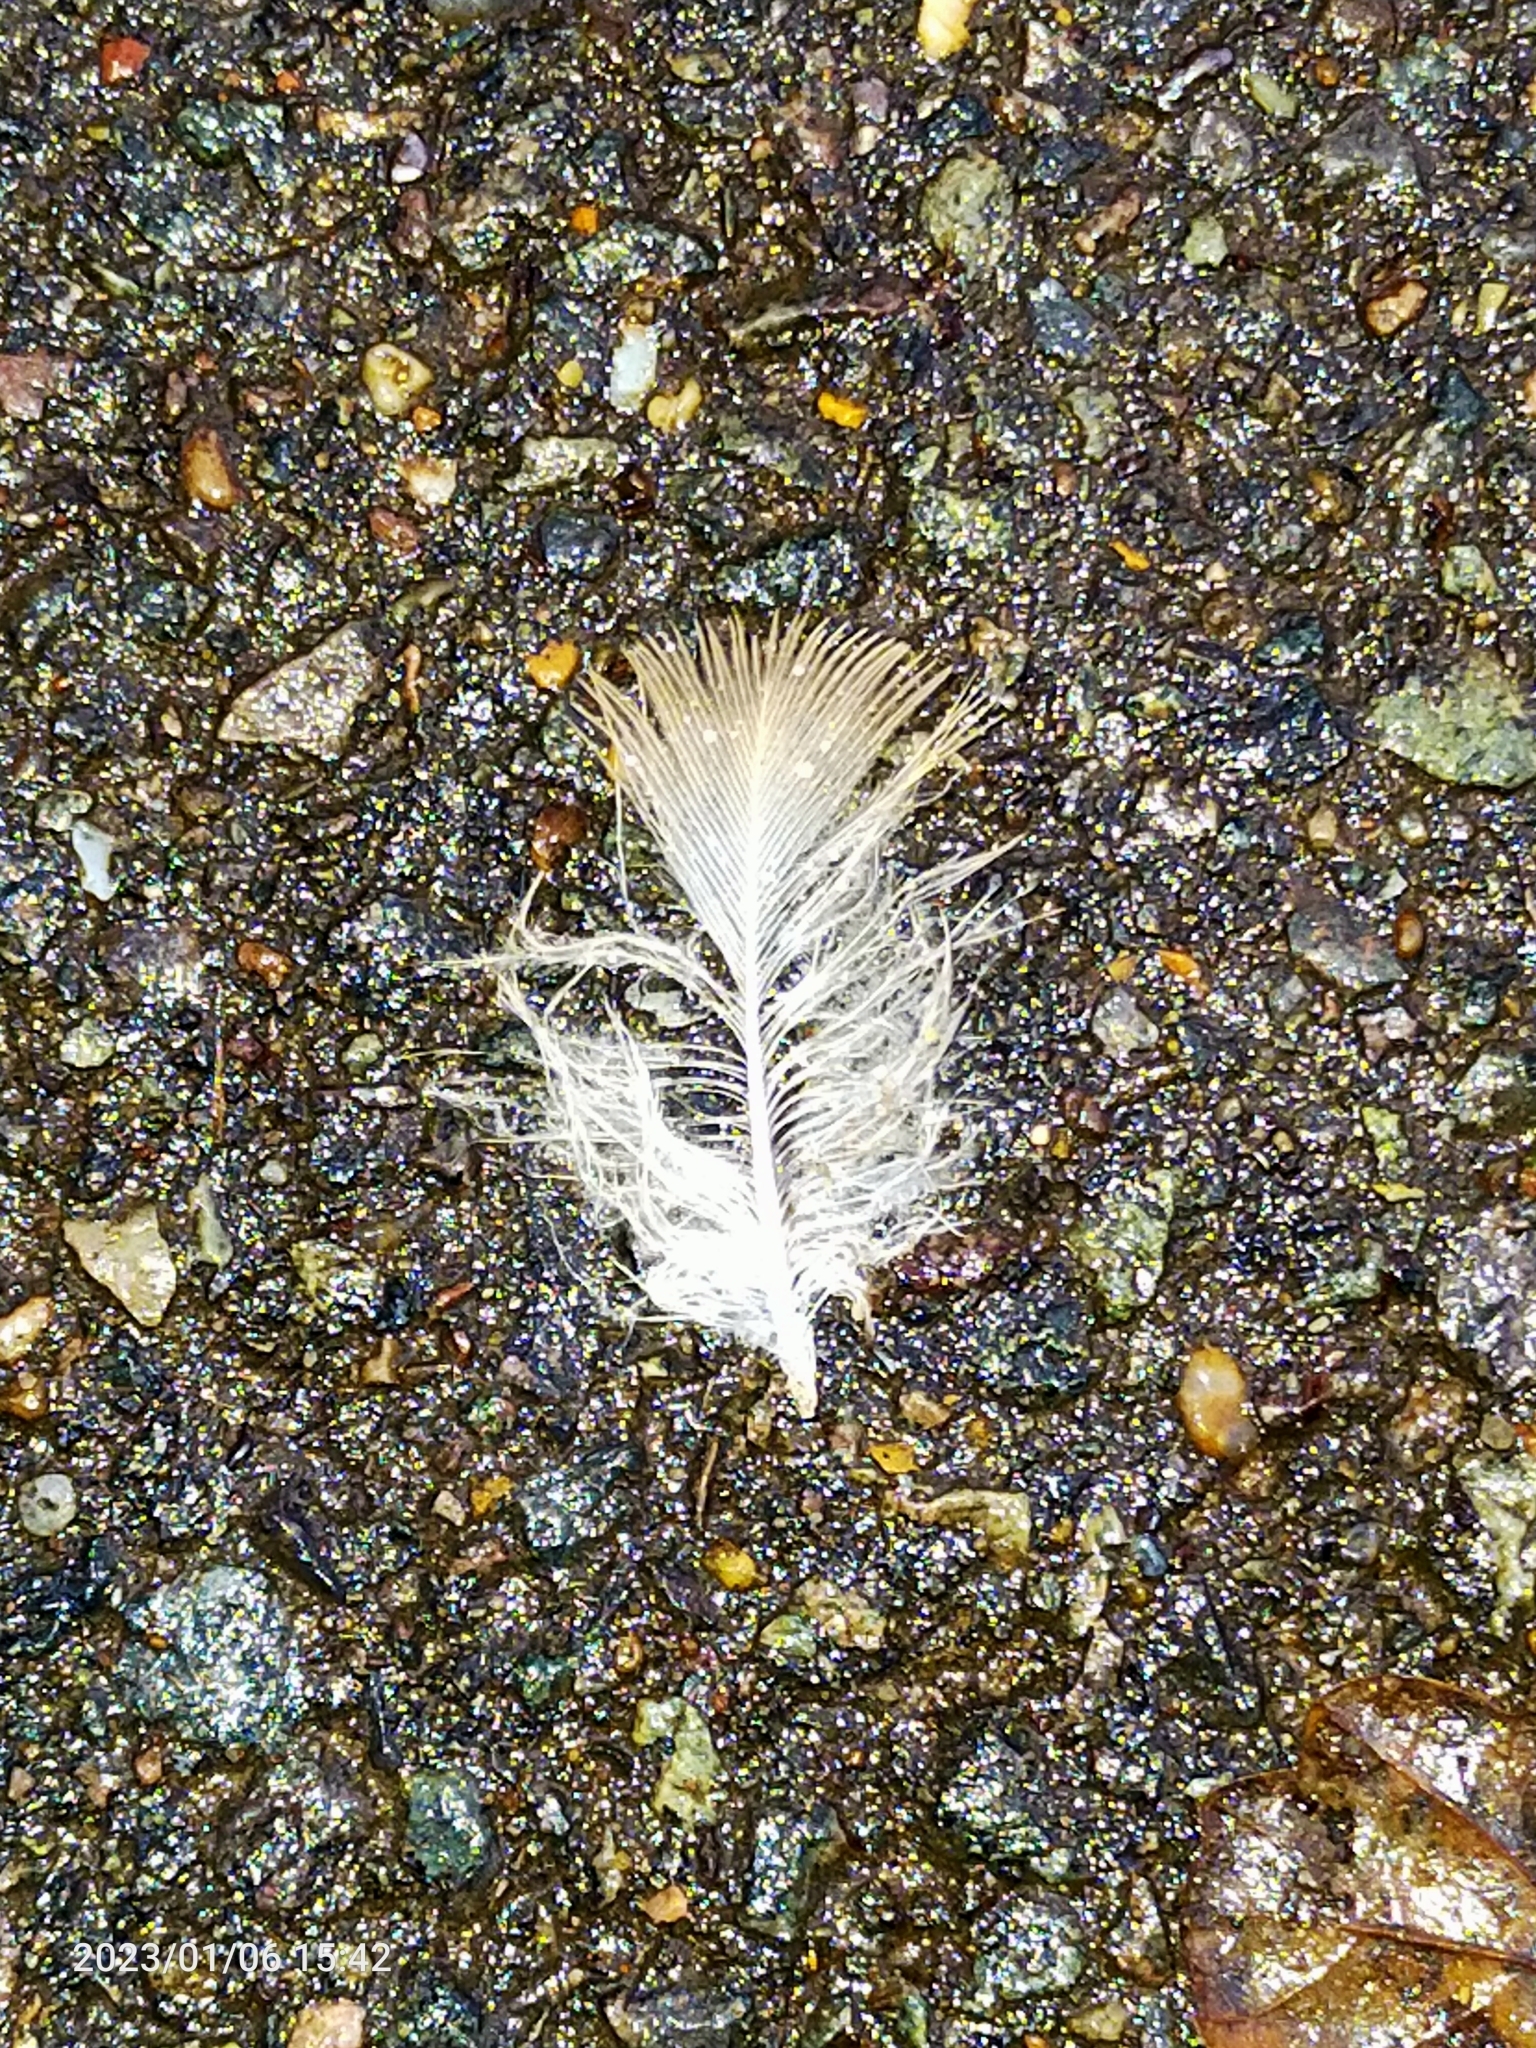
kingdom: Animalia
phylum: Chordata
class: Aves
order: Columbiformes
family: Columbidae
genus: Columba
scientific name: Columba palumbus
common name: Common wood pigeon
